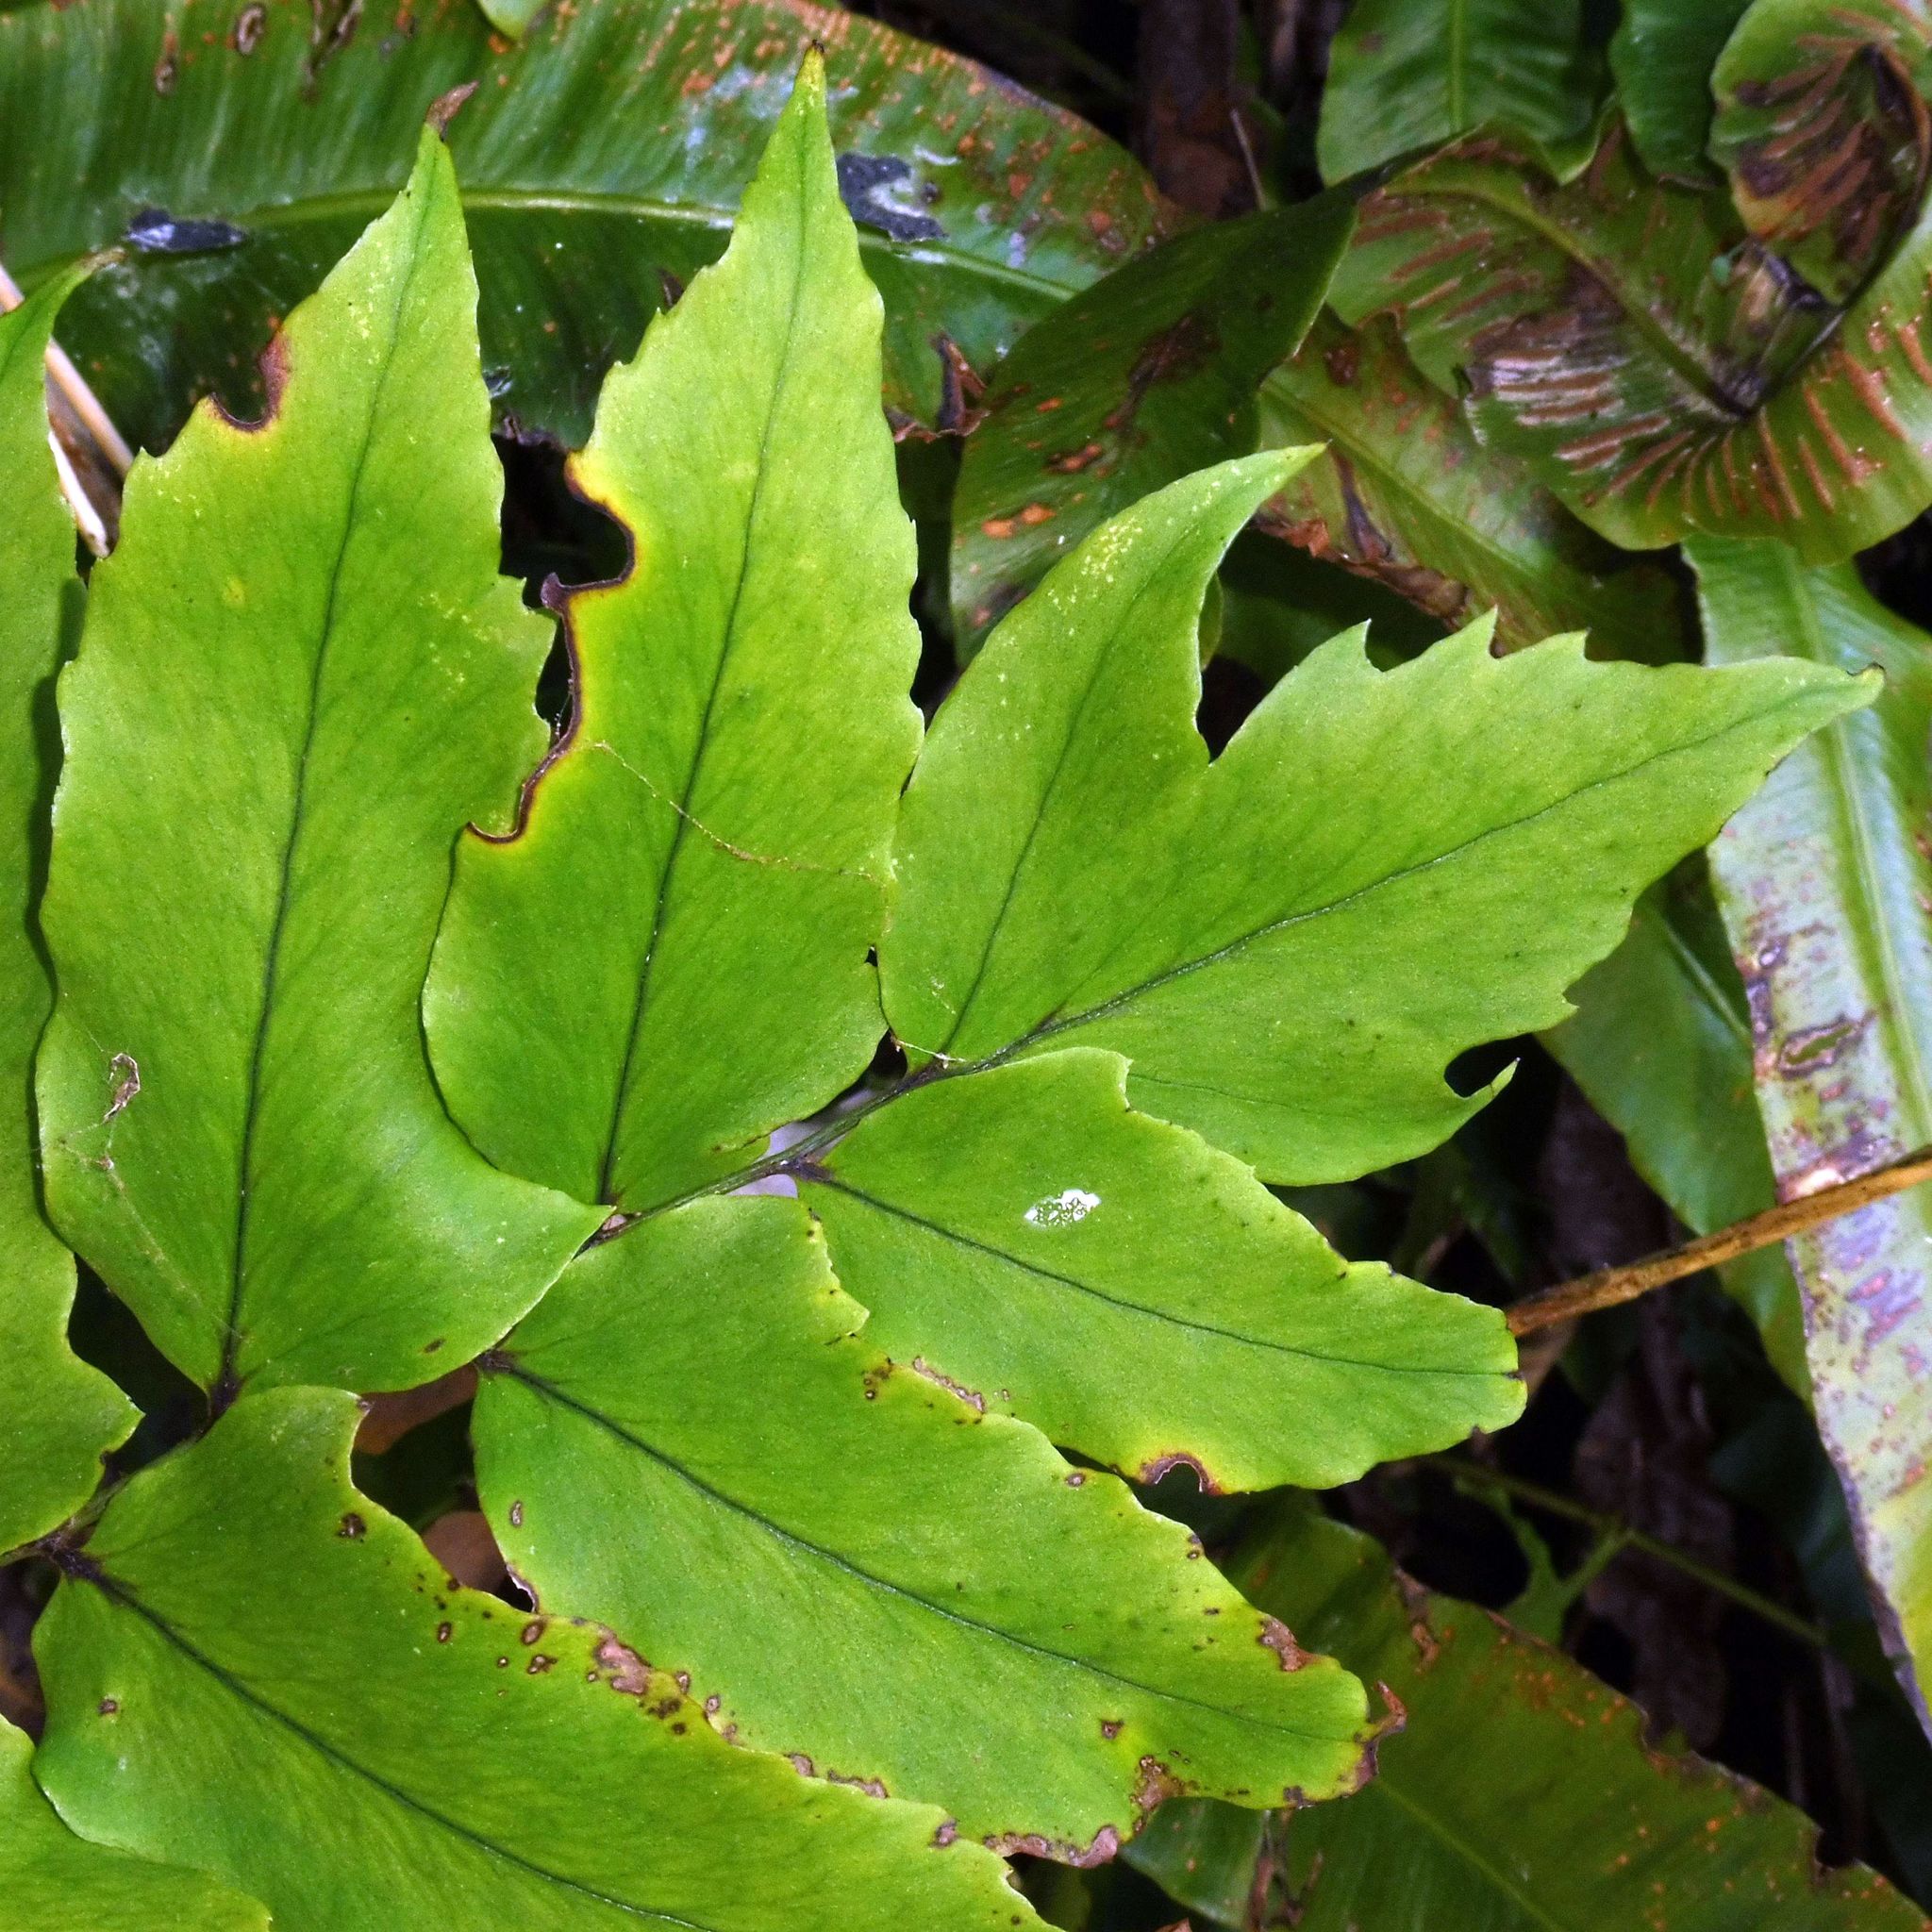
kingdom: Plantae
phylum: Tracheophyta
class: Polypodiopsida
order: Polypodiales
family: Dryopteridaceae
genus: Cyrtomium
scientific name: Cyrtomium fortunei
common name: Asian netvein hollyfern
